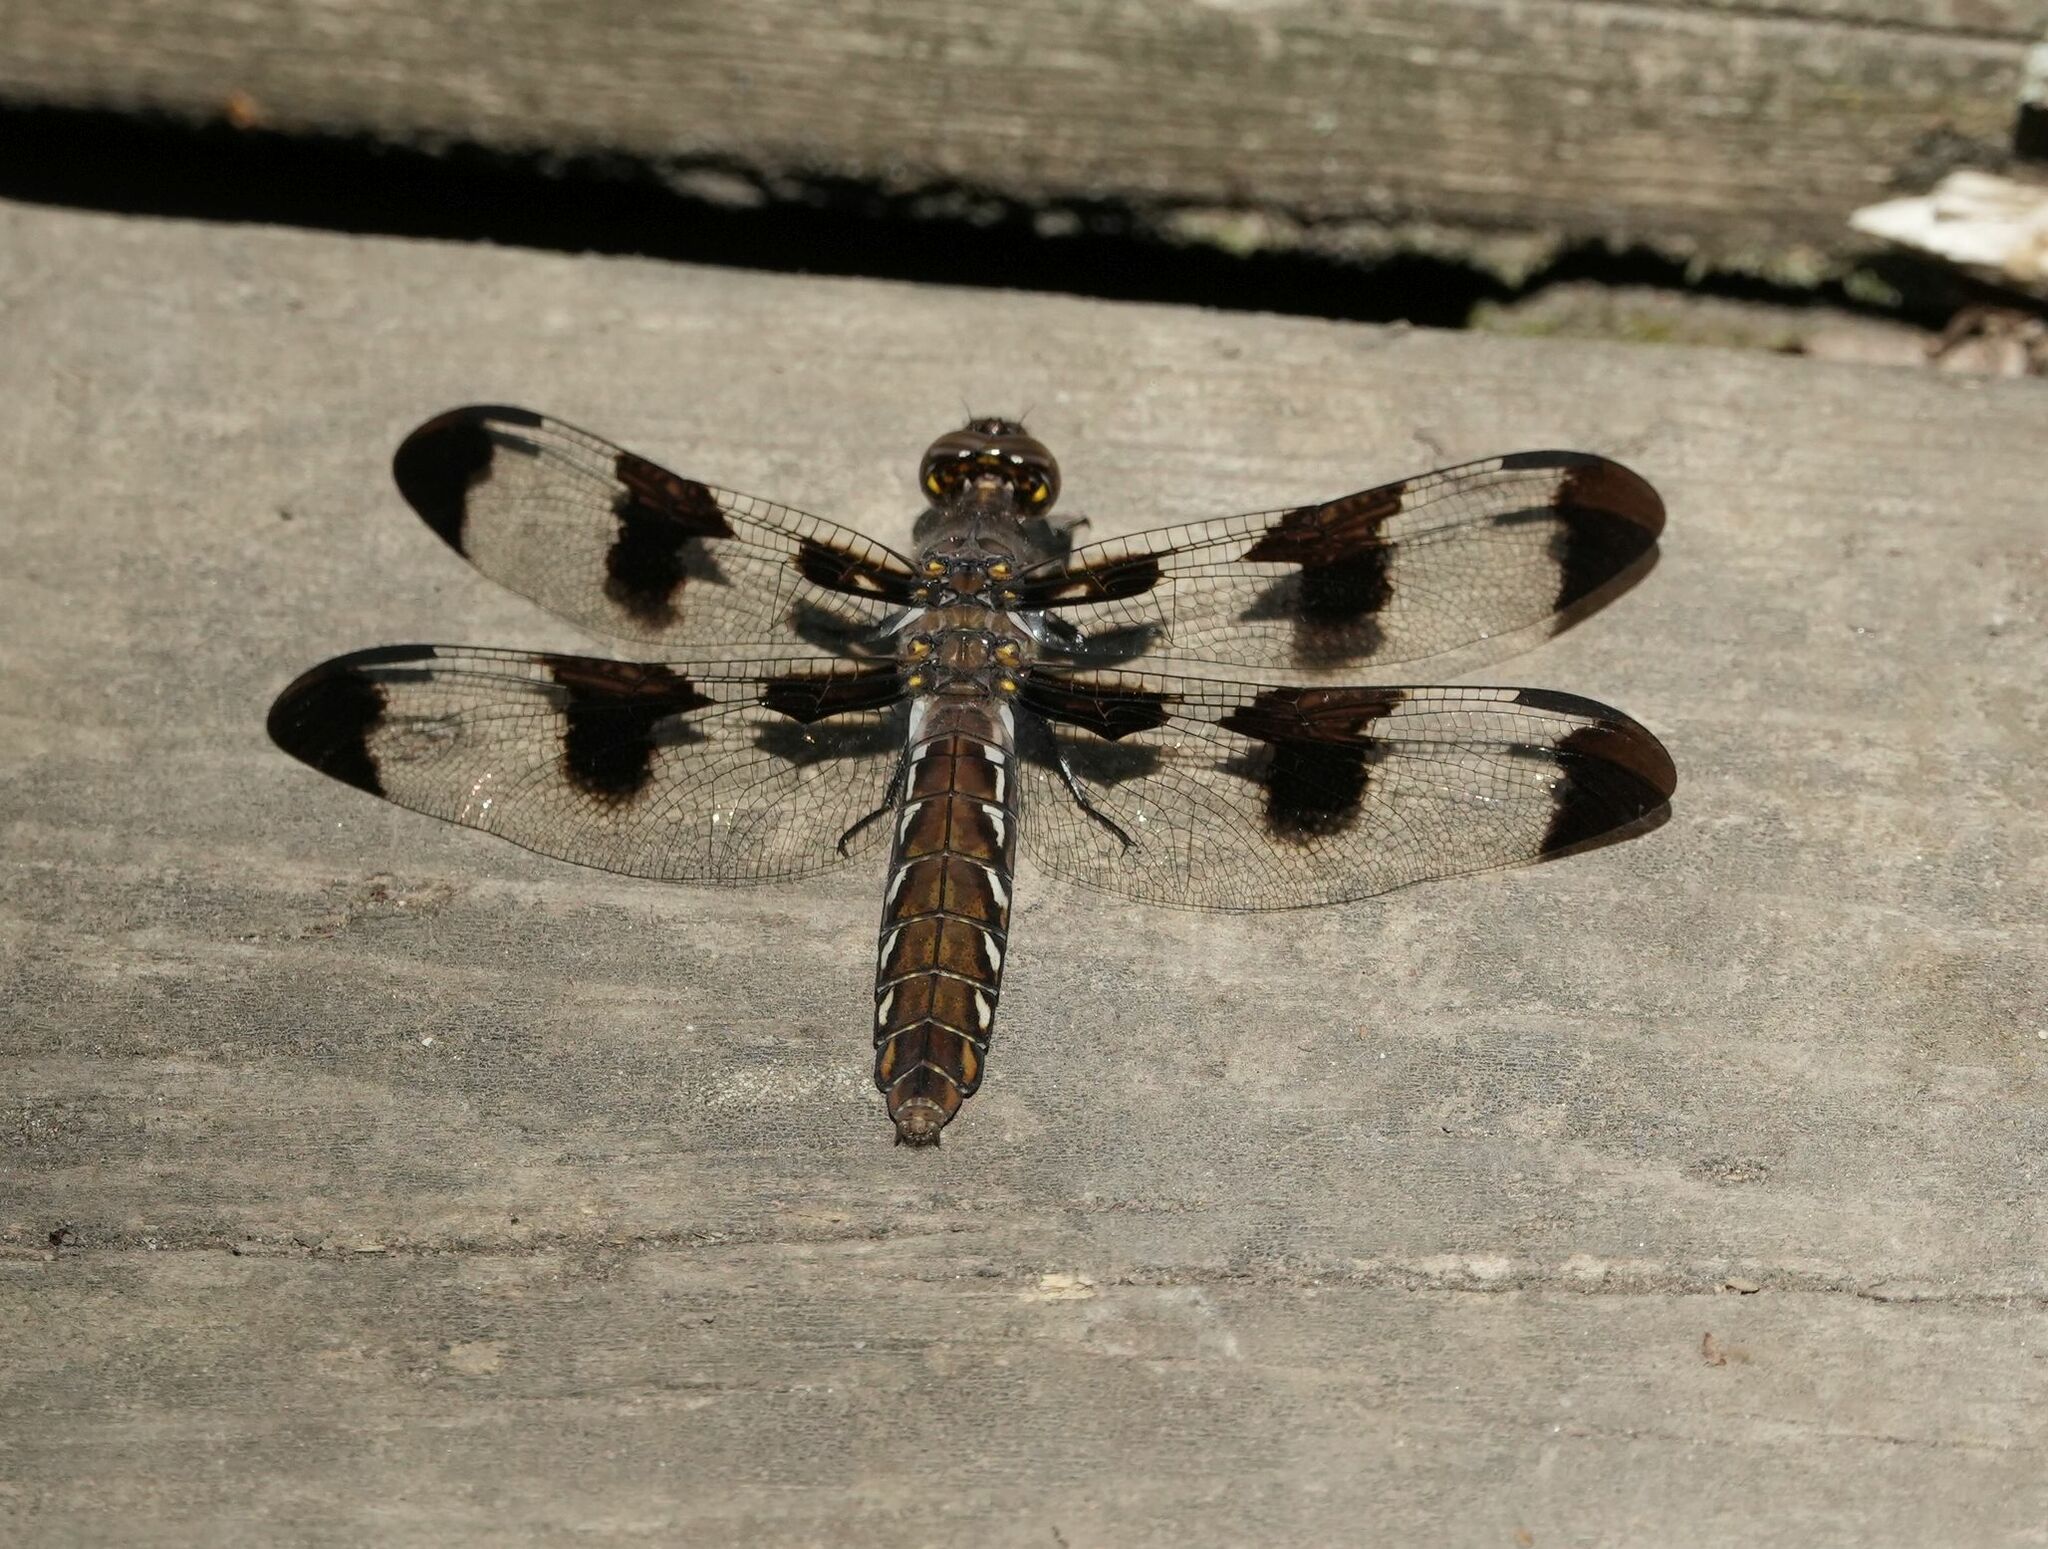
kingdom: Animalia
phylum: Arthropoda
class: Insecta
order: Odonata
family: Libellulidae
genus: Plathemis
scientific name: Plathemis lydia
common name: Common whitetail
